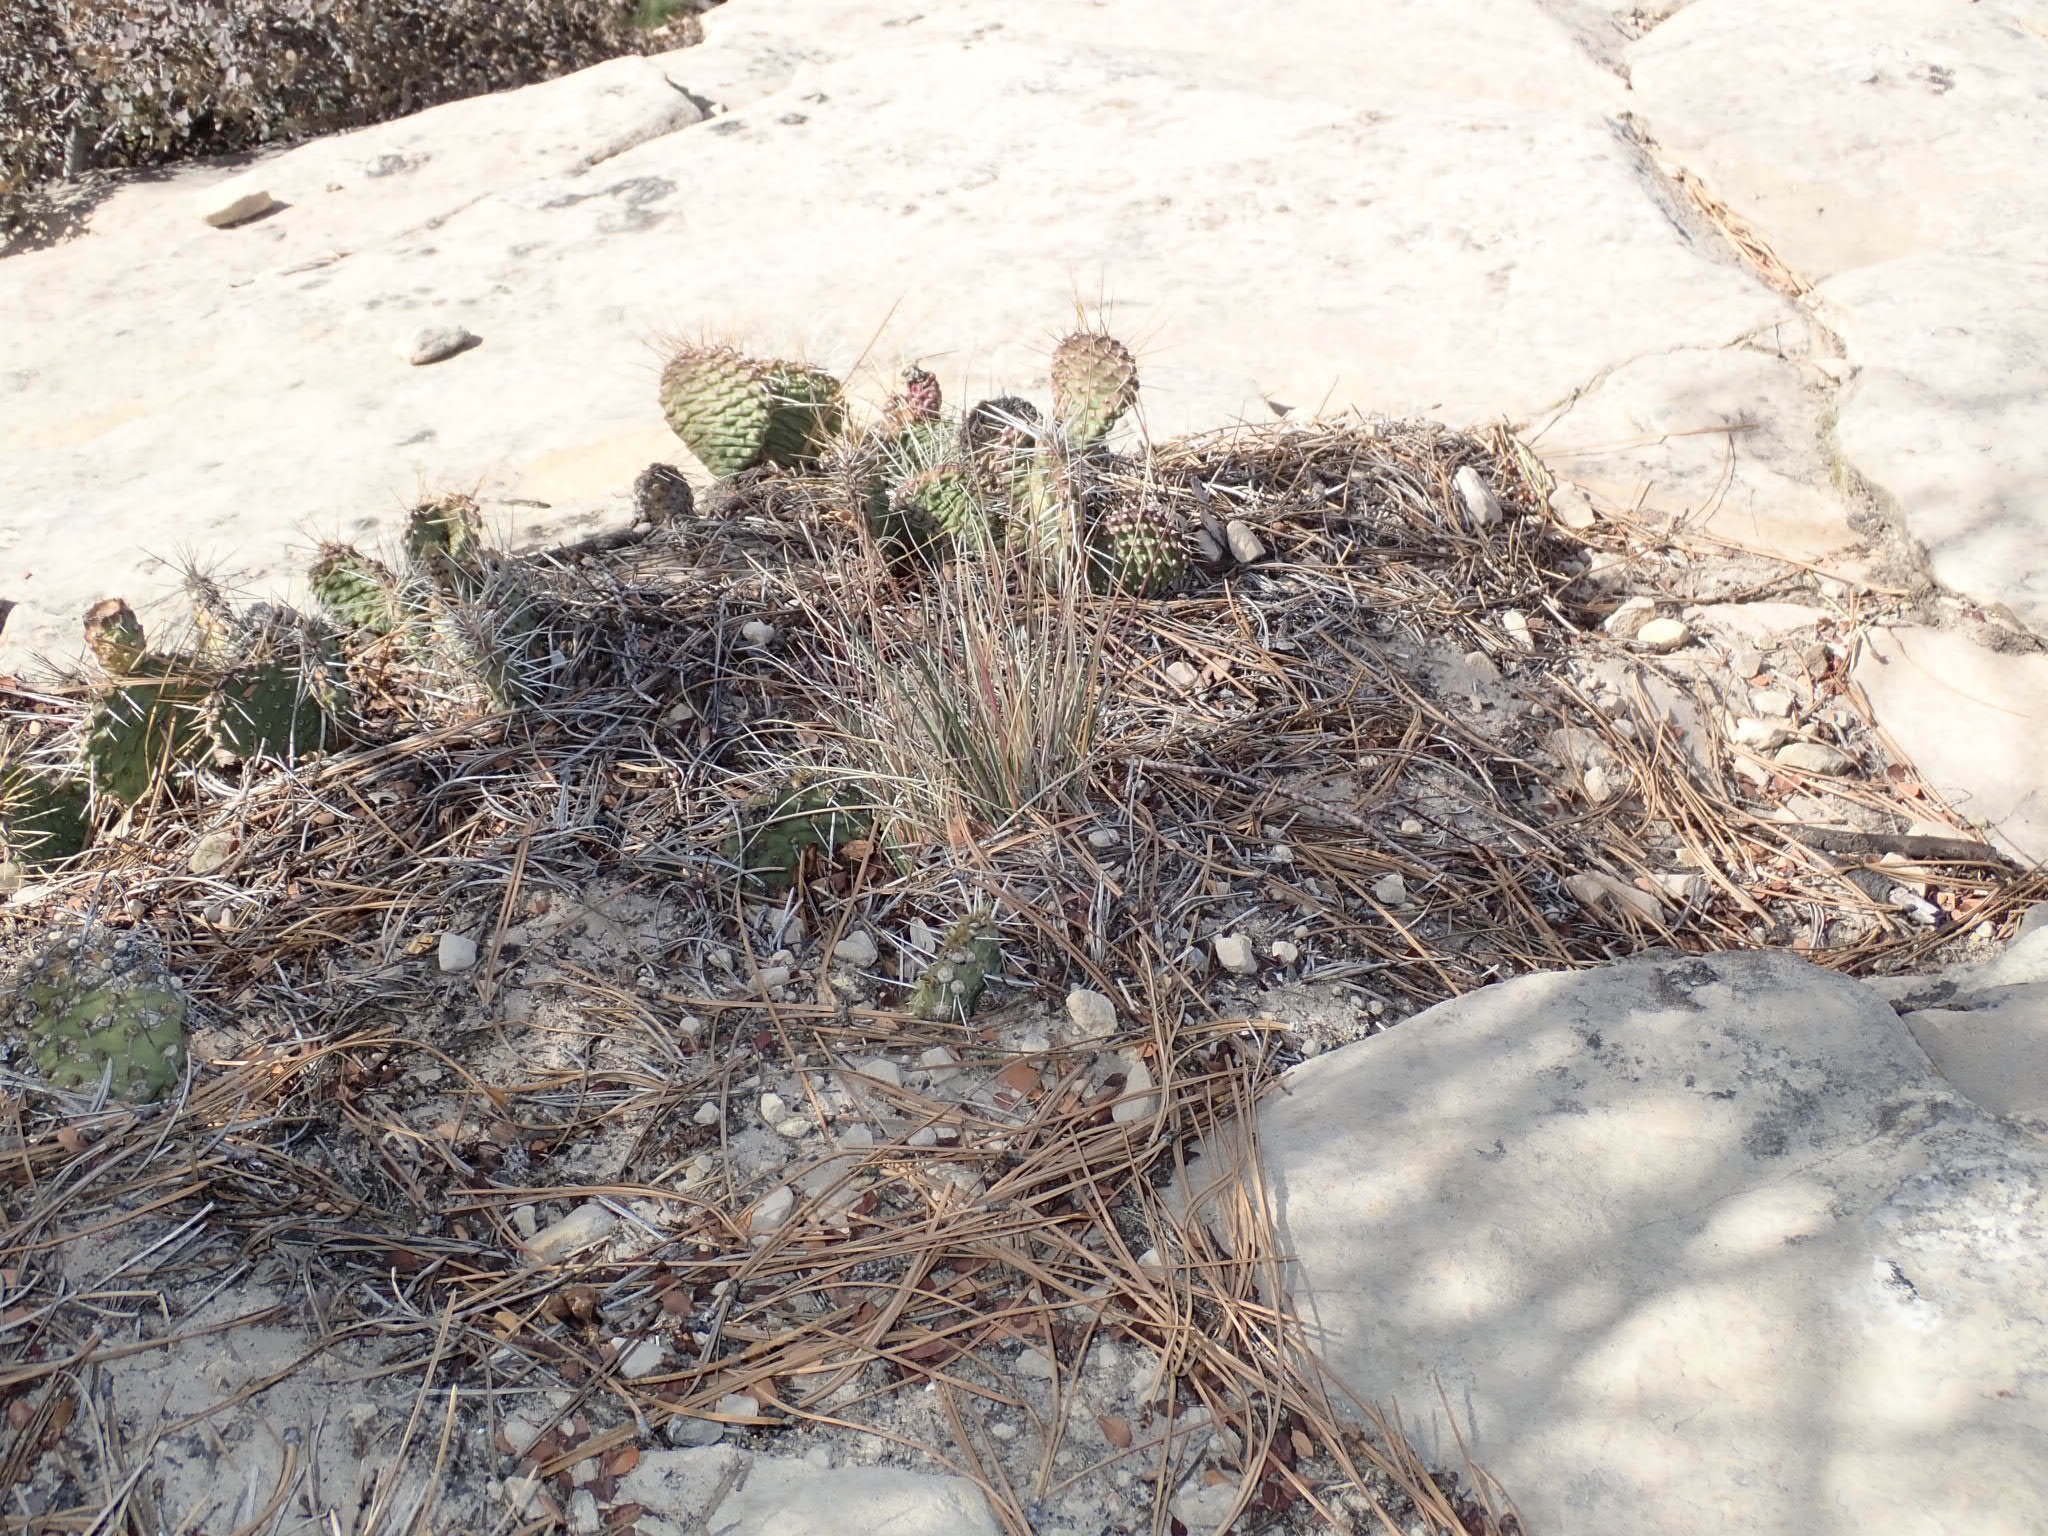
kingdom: Plantae
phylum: Tracheophyta
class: Magnoliopsida
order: Caryophyllales
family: Cactaceae
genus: Opuntia
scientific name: Opuntia aurea
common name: Golden prickly-pear
